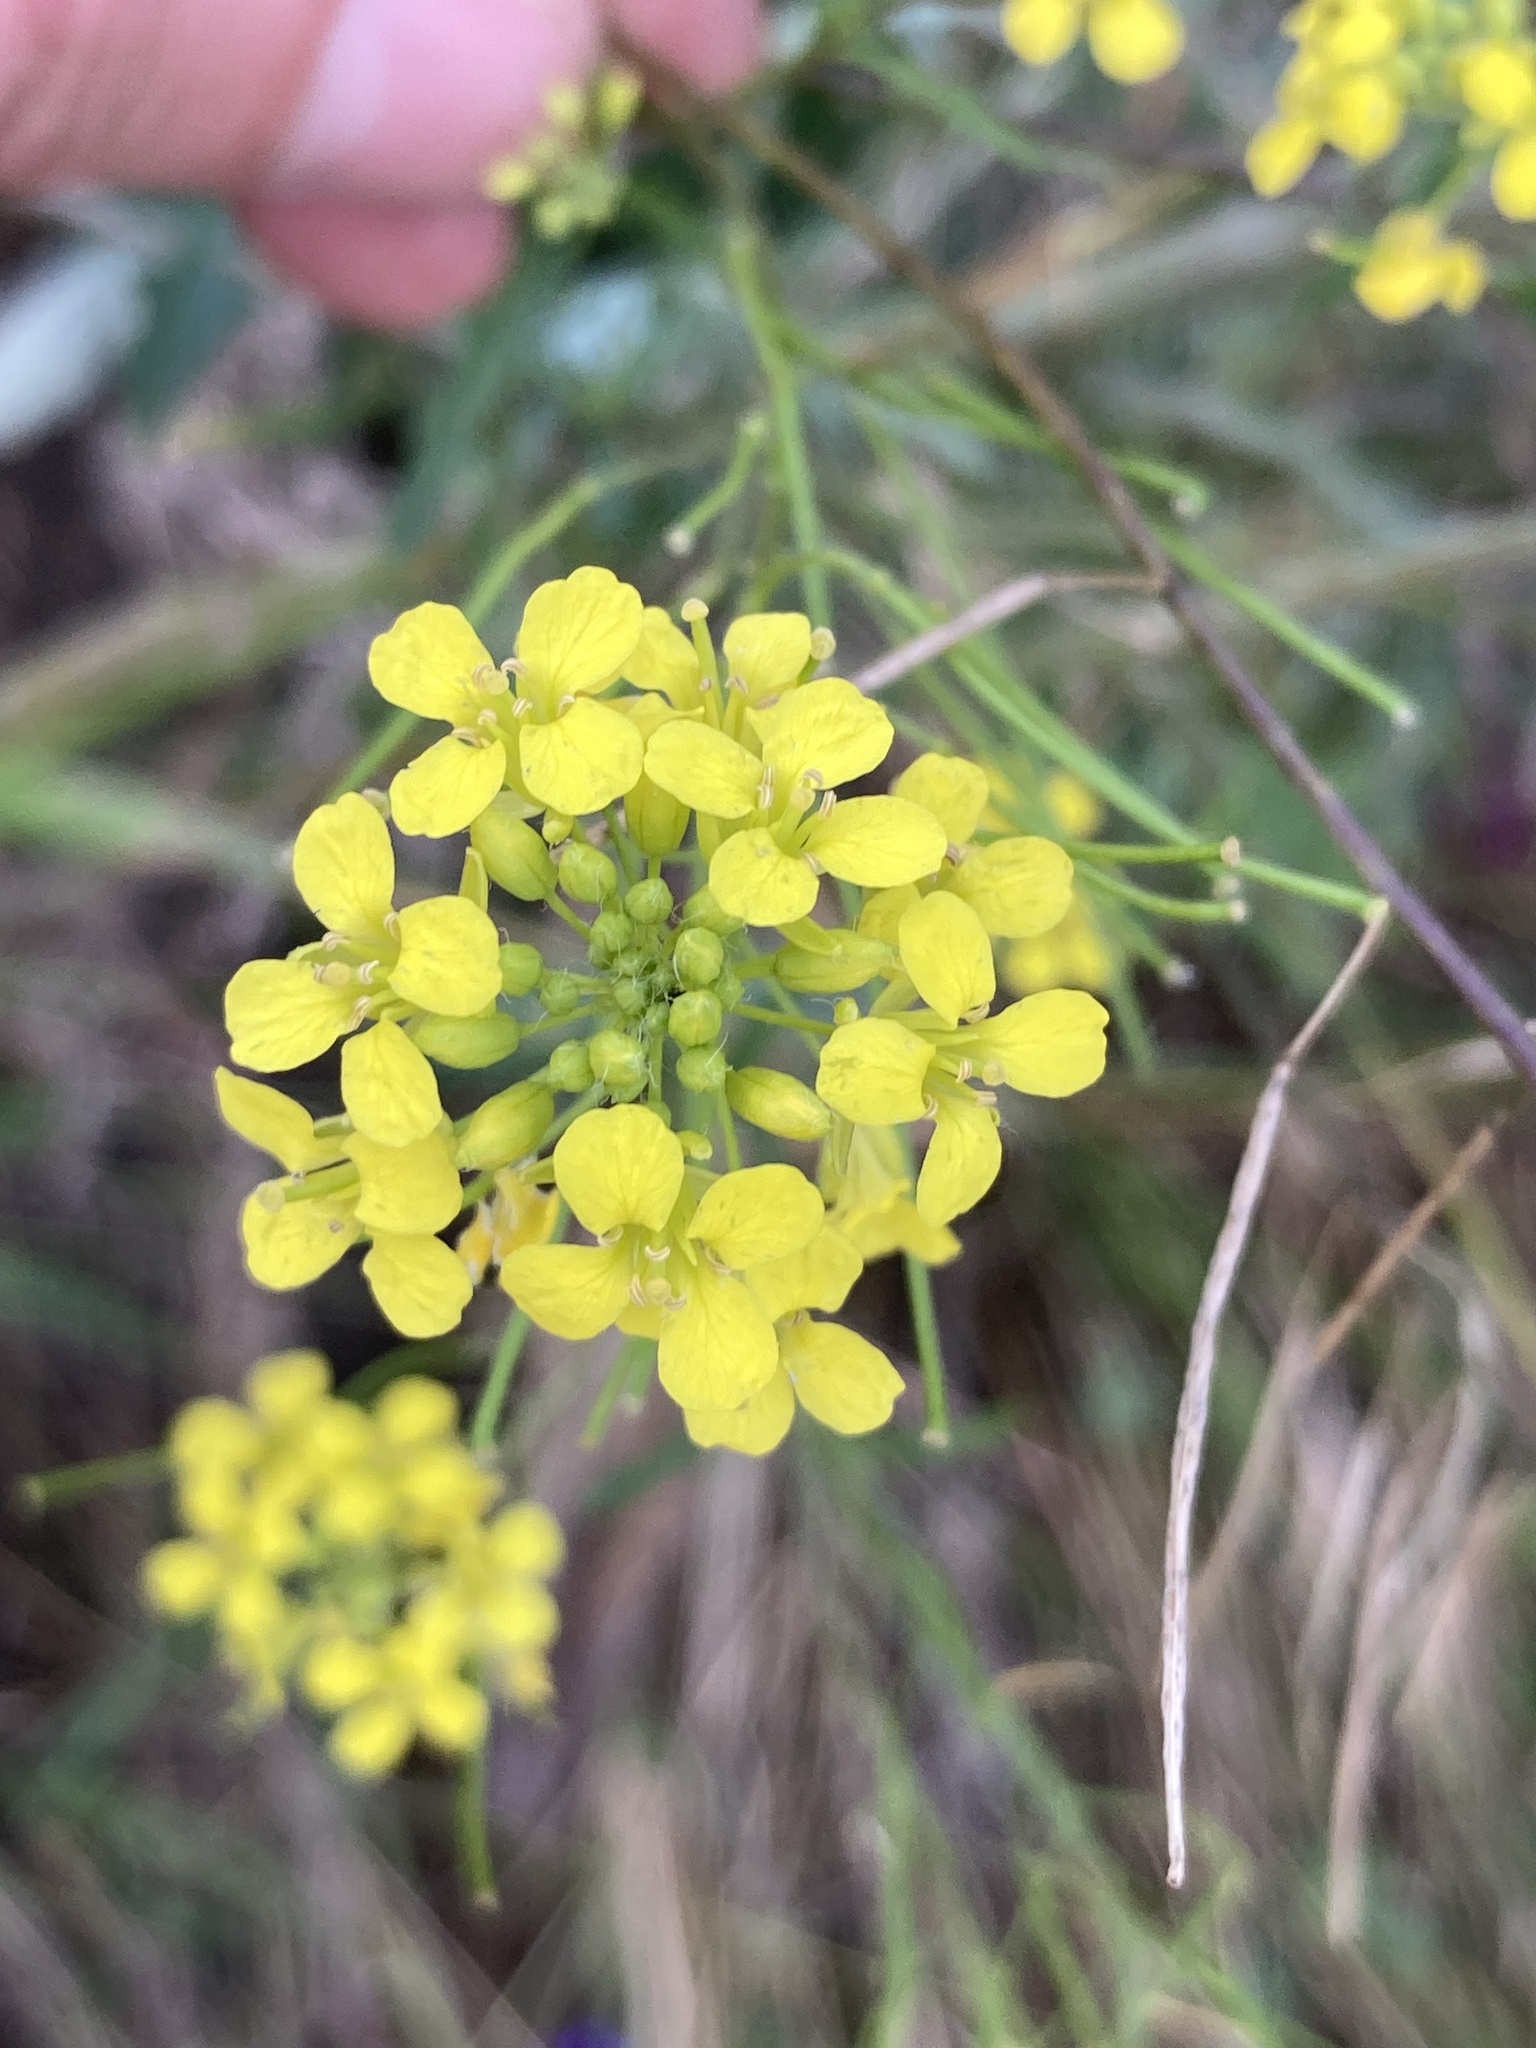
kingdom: Plantae
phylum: Tracheophyta
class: Magnoliopsida
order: Brassicales
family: Brassicaceae
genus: Sisymbrium
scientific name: Sisymbrium loeselii
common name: False london-rocket
